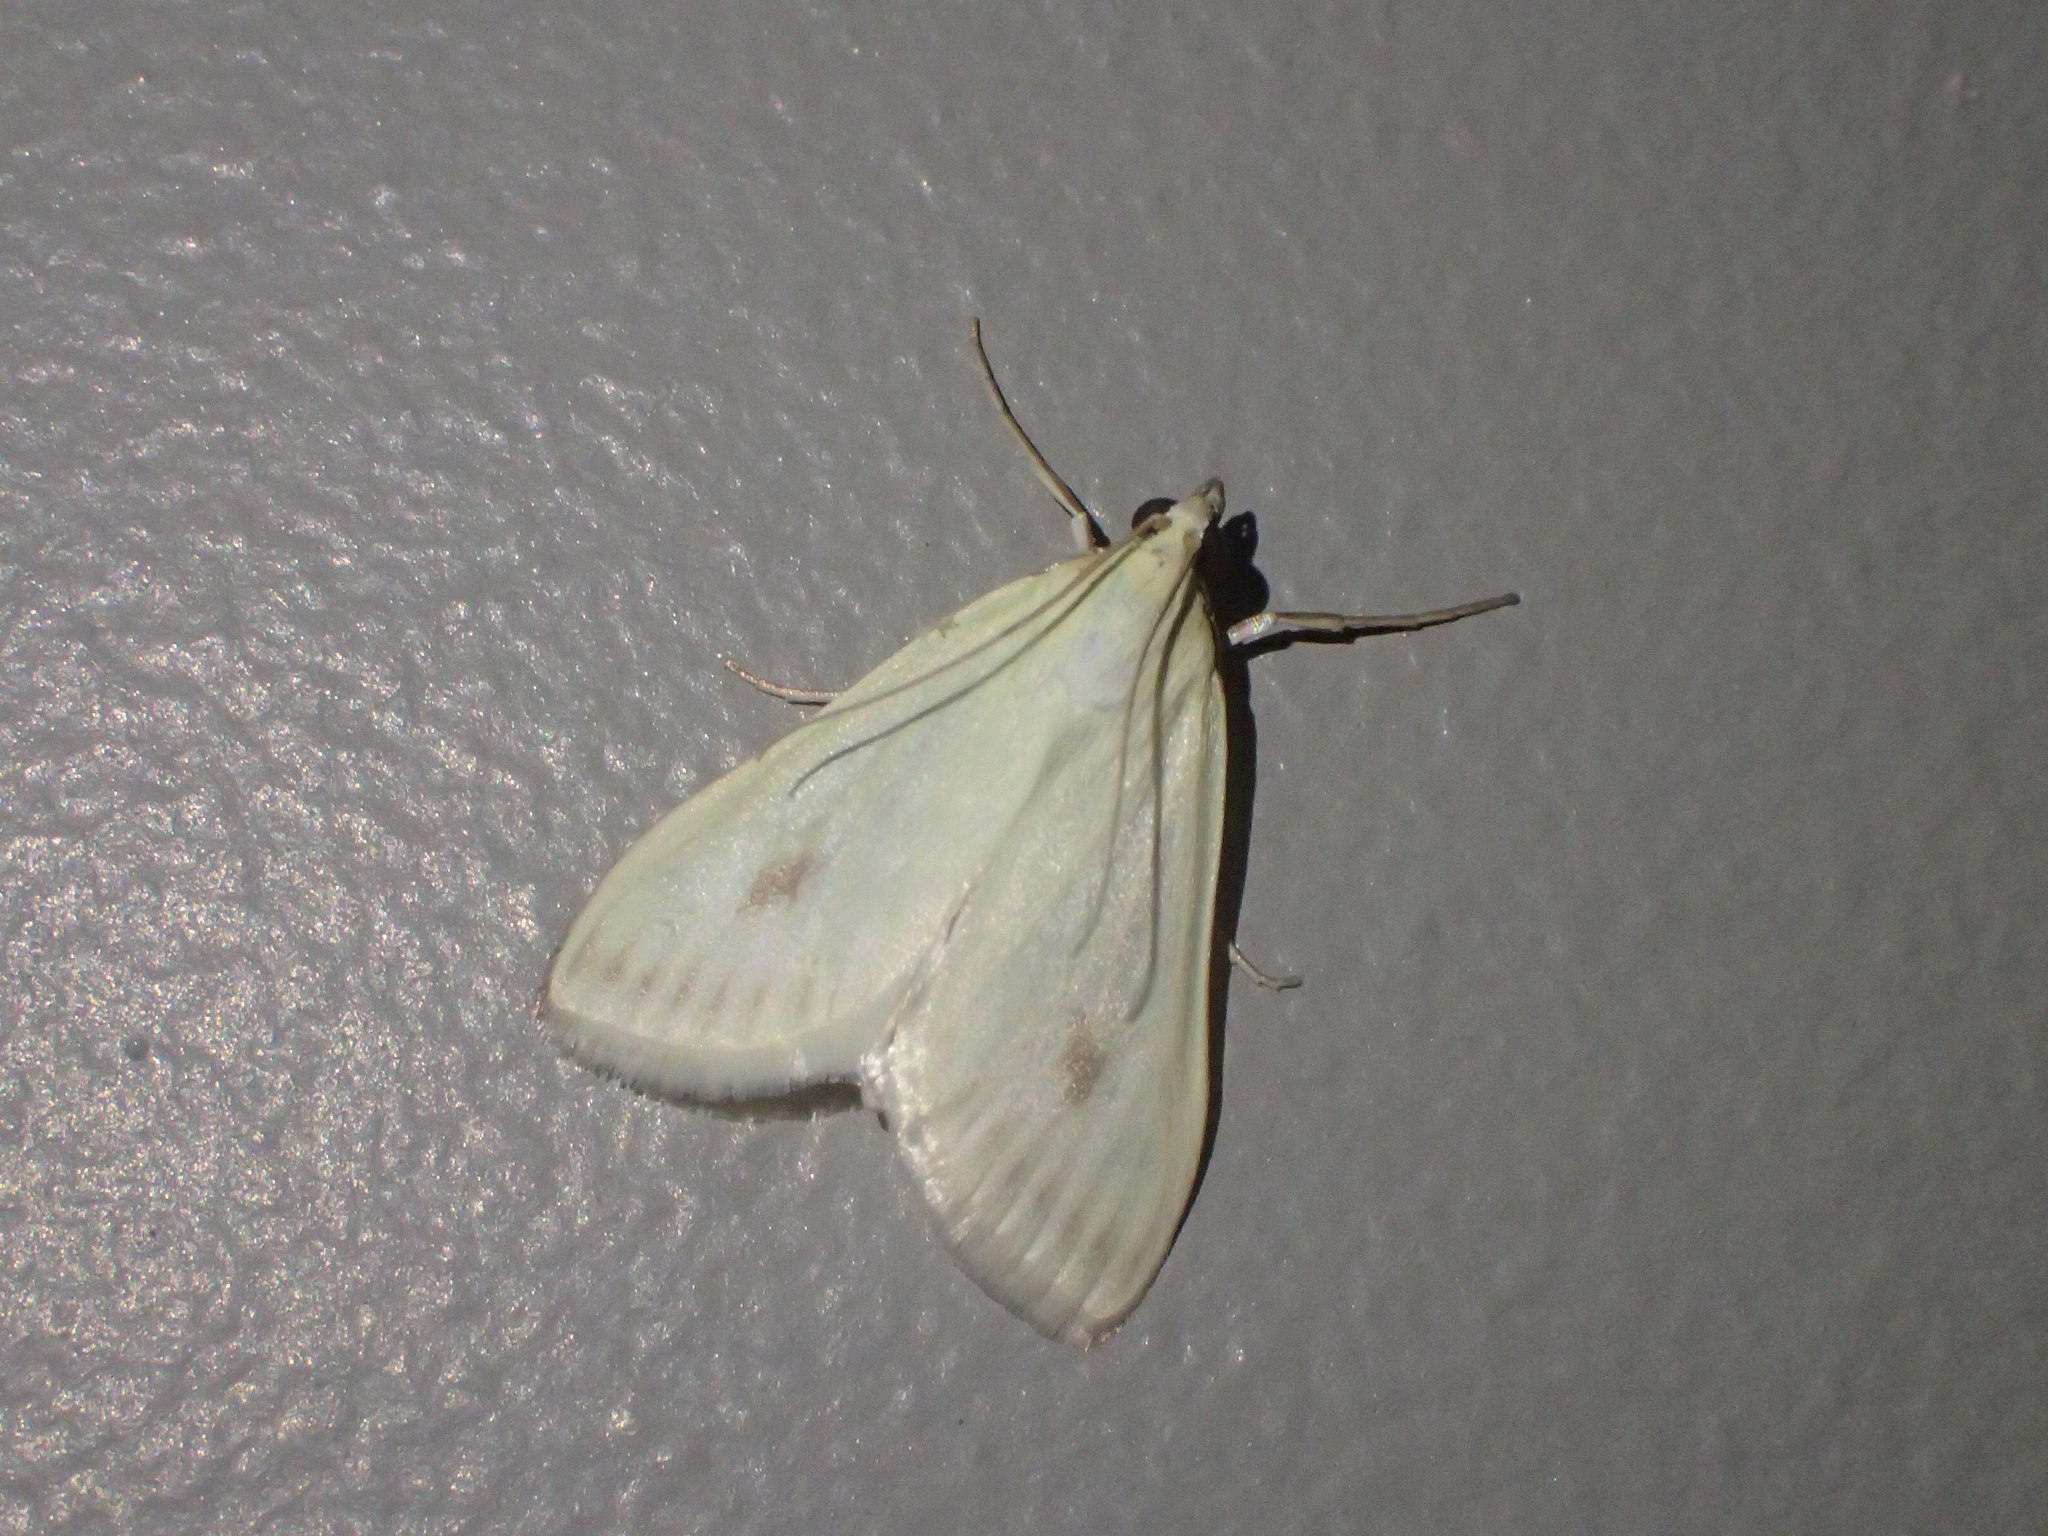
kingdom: Animalia
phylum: Arthropoda
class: Insecta
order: Lepidoptera
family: Crambidae
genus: Sitochroa
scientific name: Sitochroa palealis
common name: Greenish-yellow sitochroa moth
